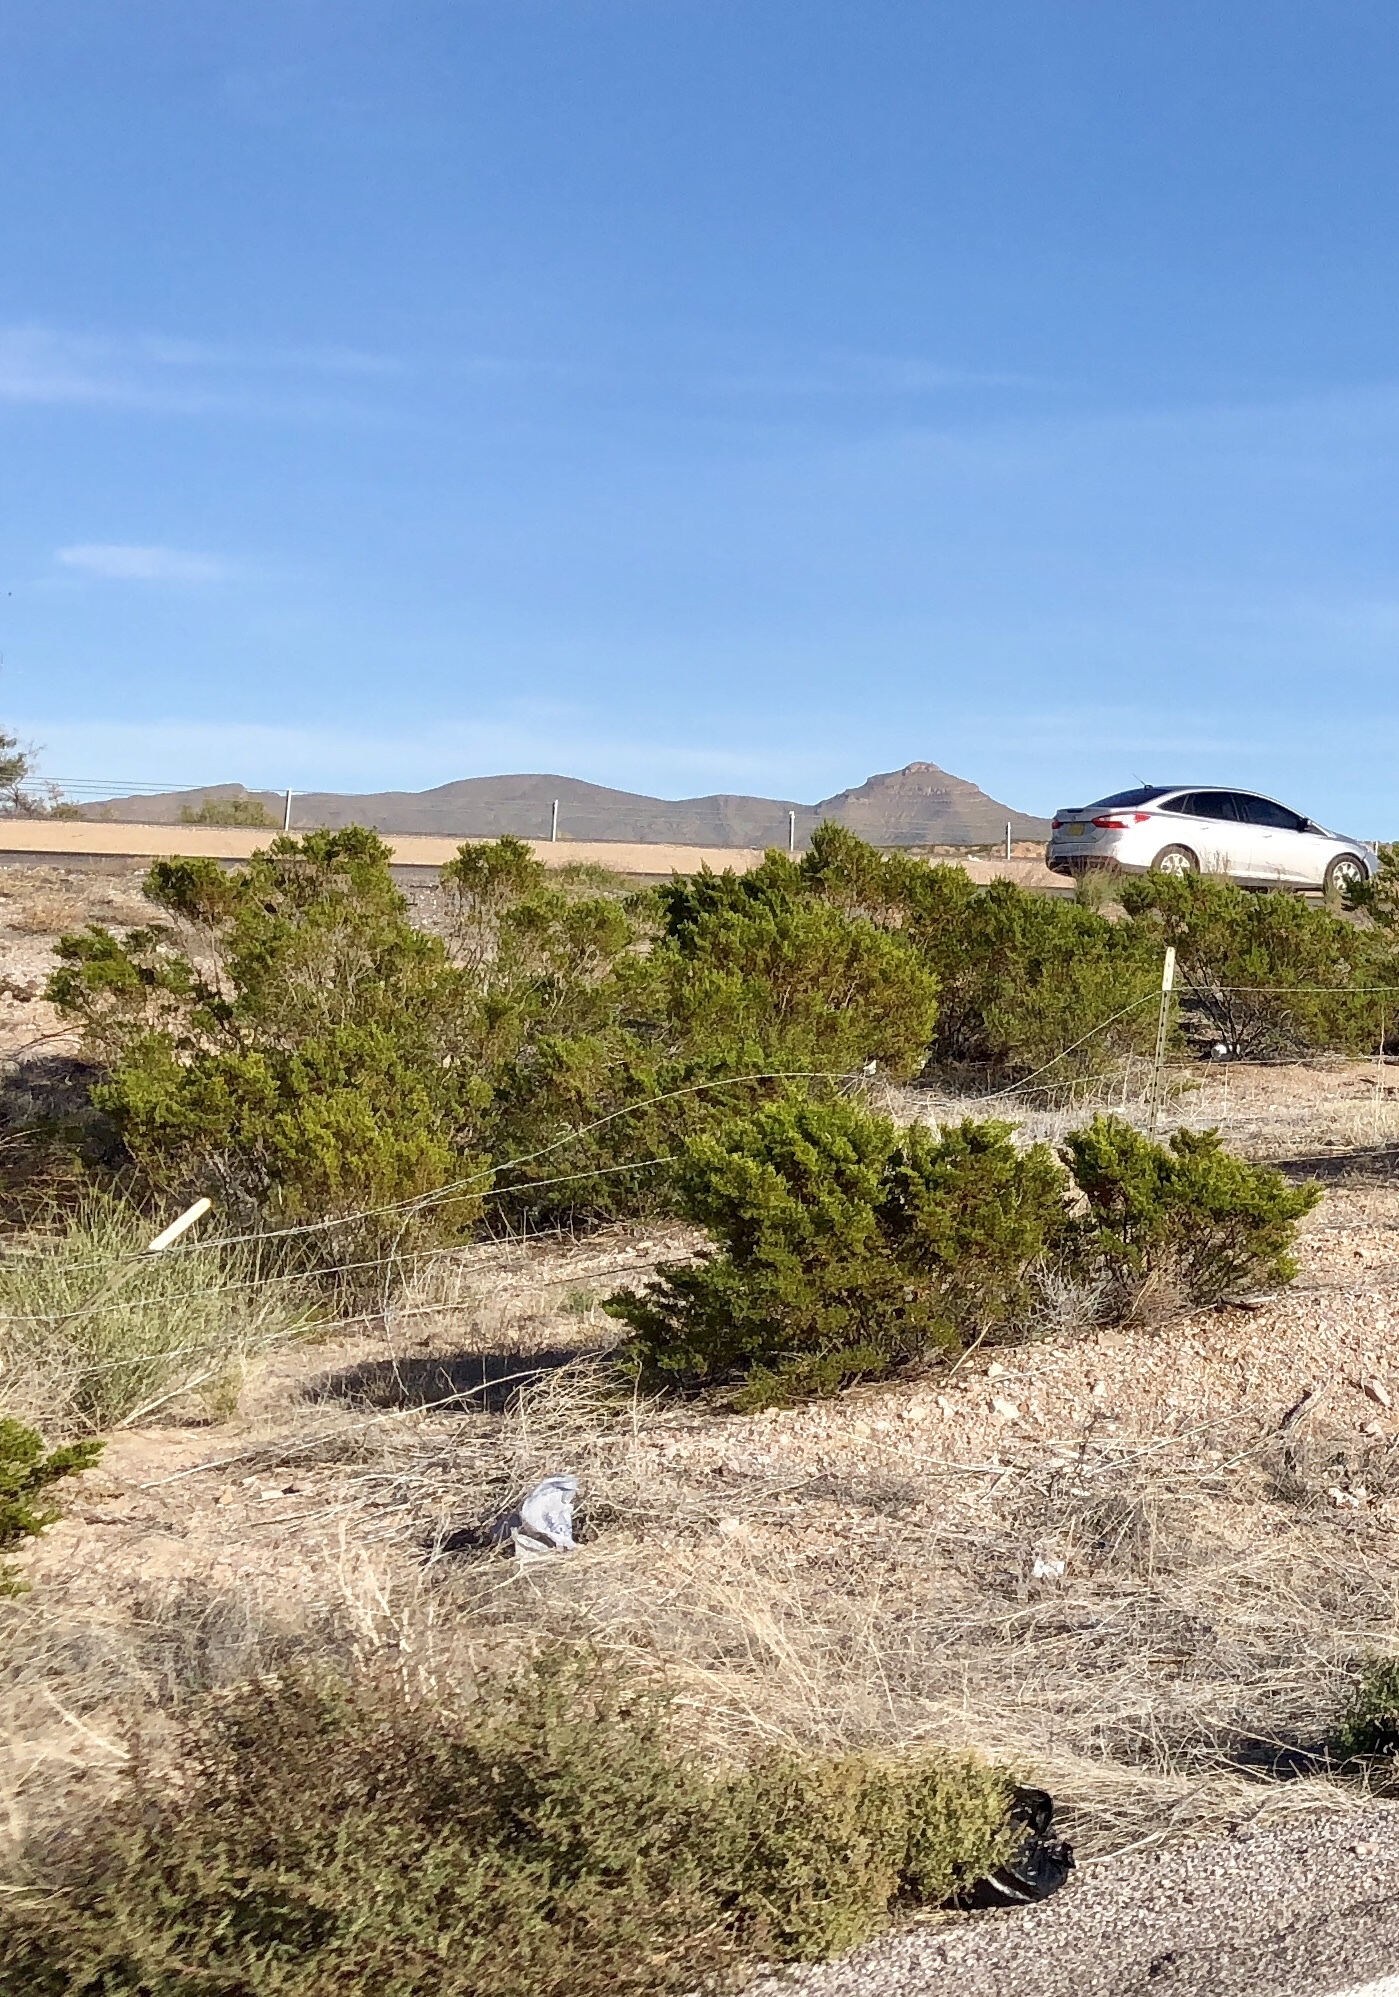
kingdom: Plantae
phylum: Tracheophyta
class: Magnoliopsida
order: Zygophyllales
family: Zygophyllaceae
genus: Larrea
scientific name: Larrea tridentata
